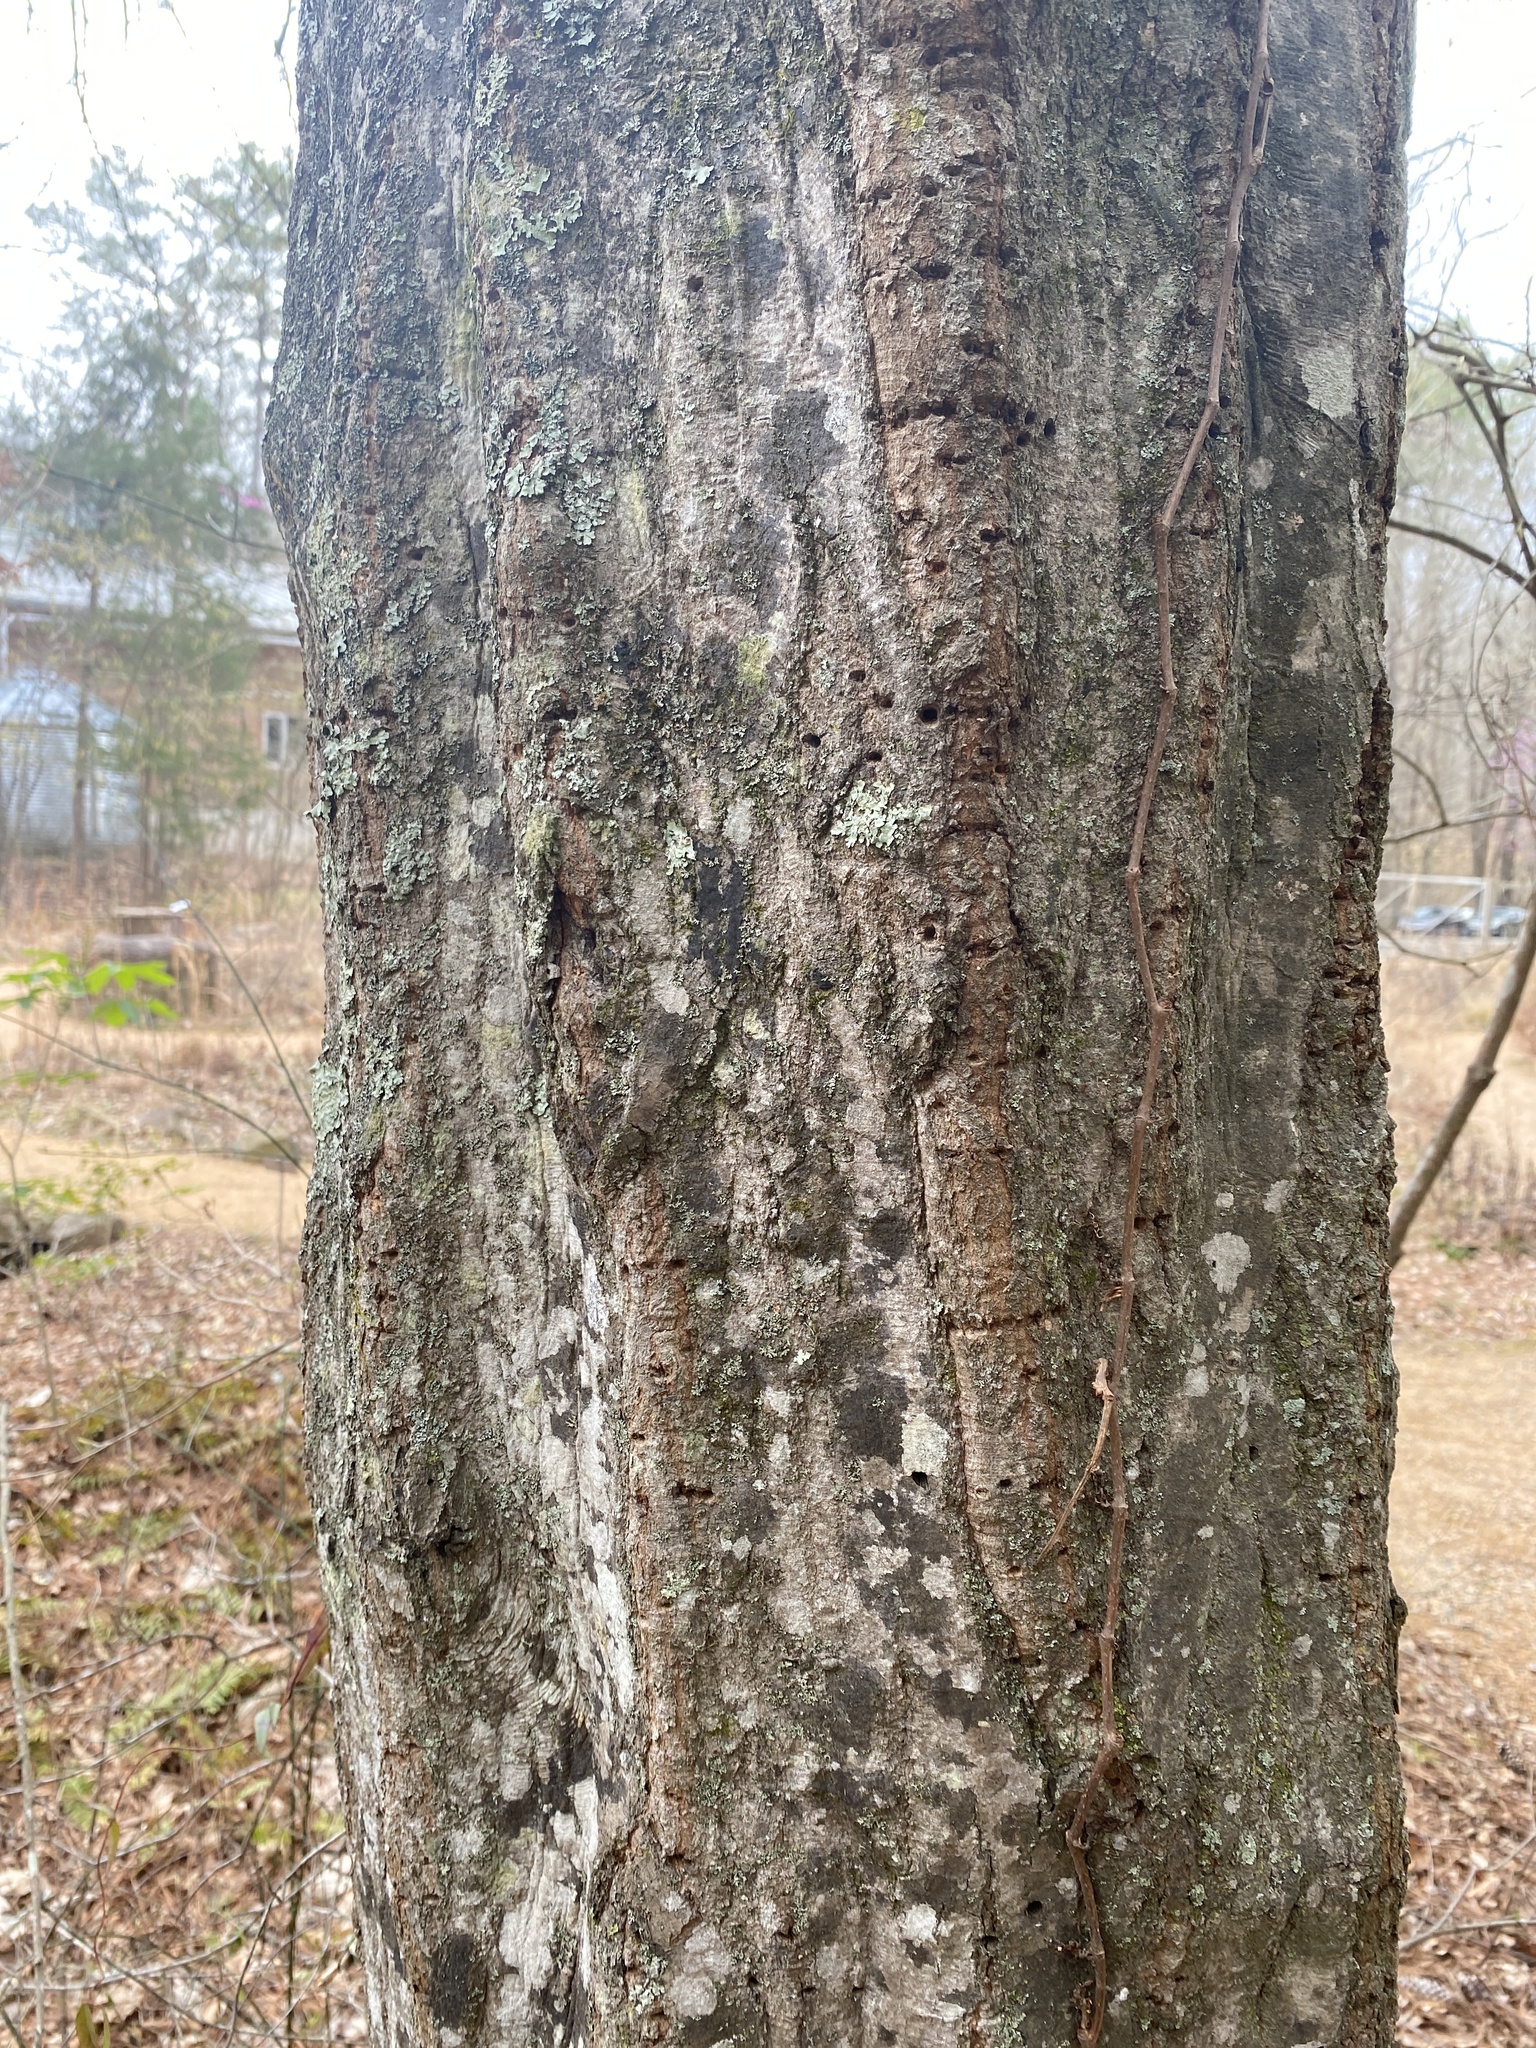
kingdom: Plantae
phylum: Tracheophyta
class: Magnoliopsida
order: Fagales
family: Betulaceae
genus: Carpinus
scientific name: Carpinus caroliniana
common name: American hornbeam
